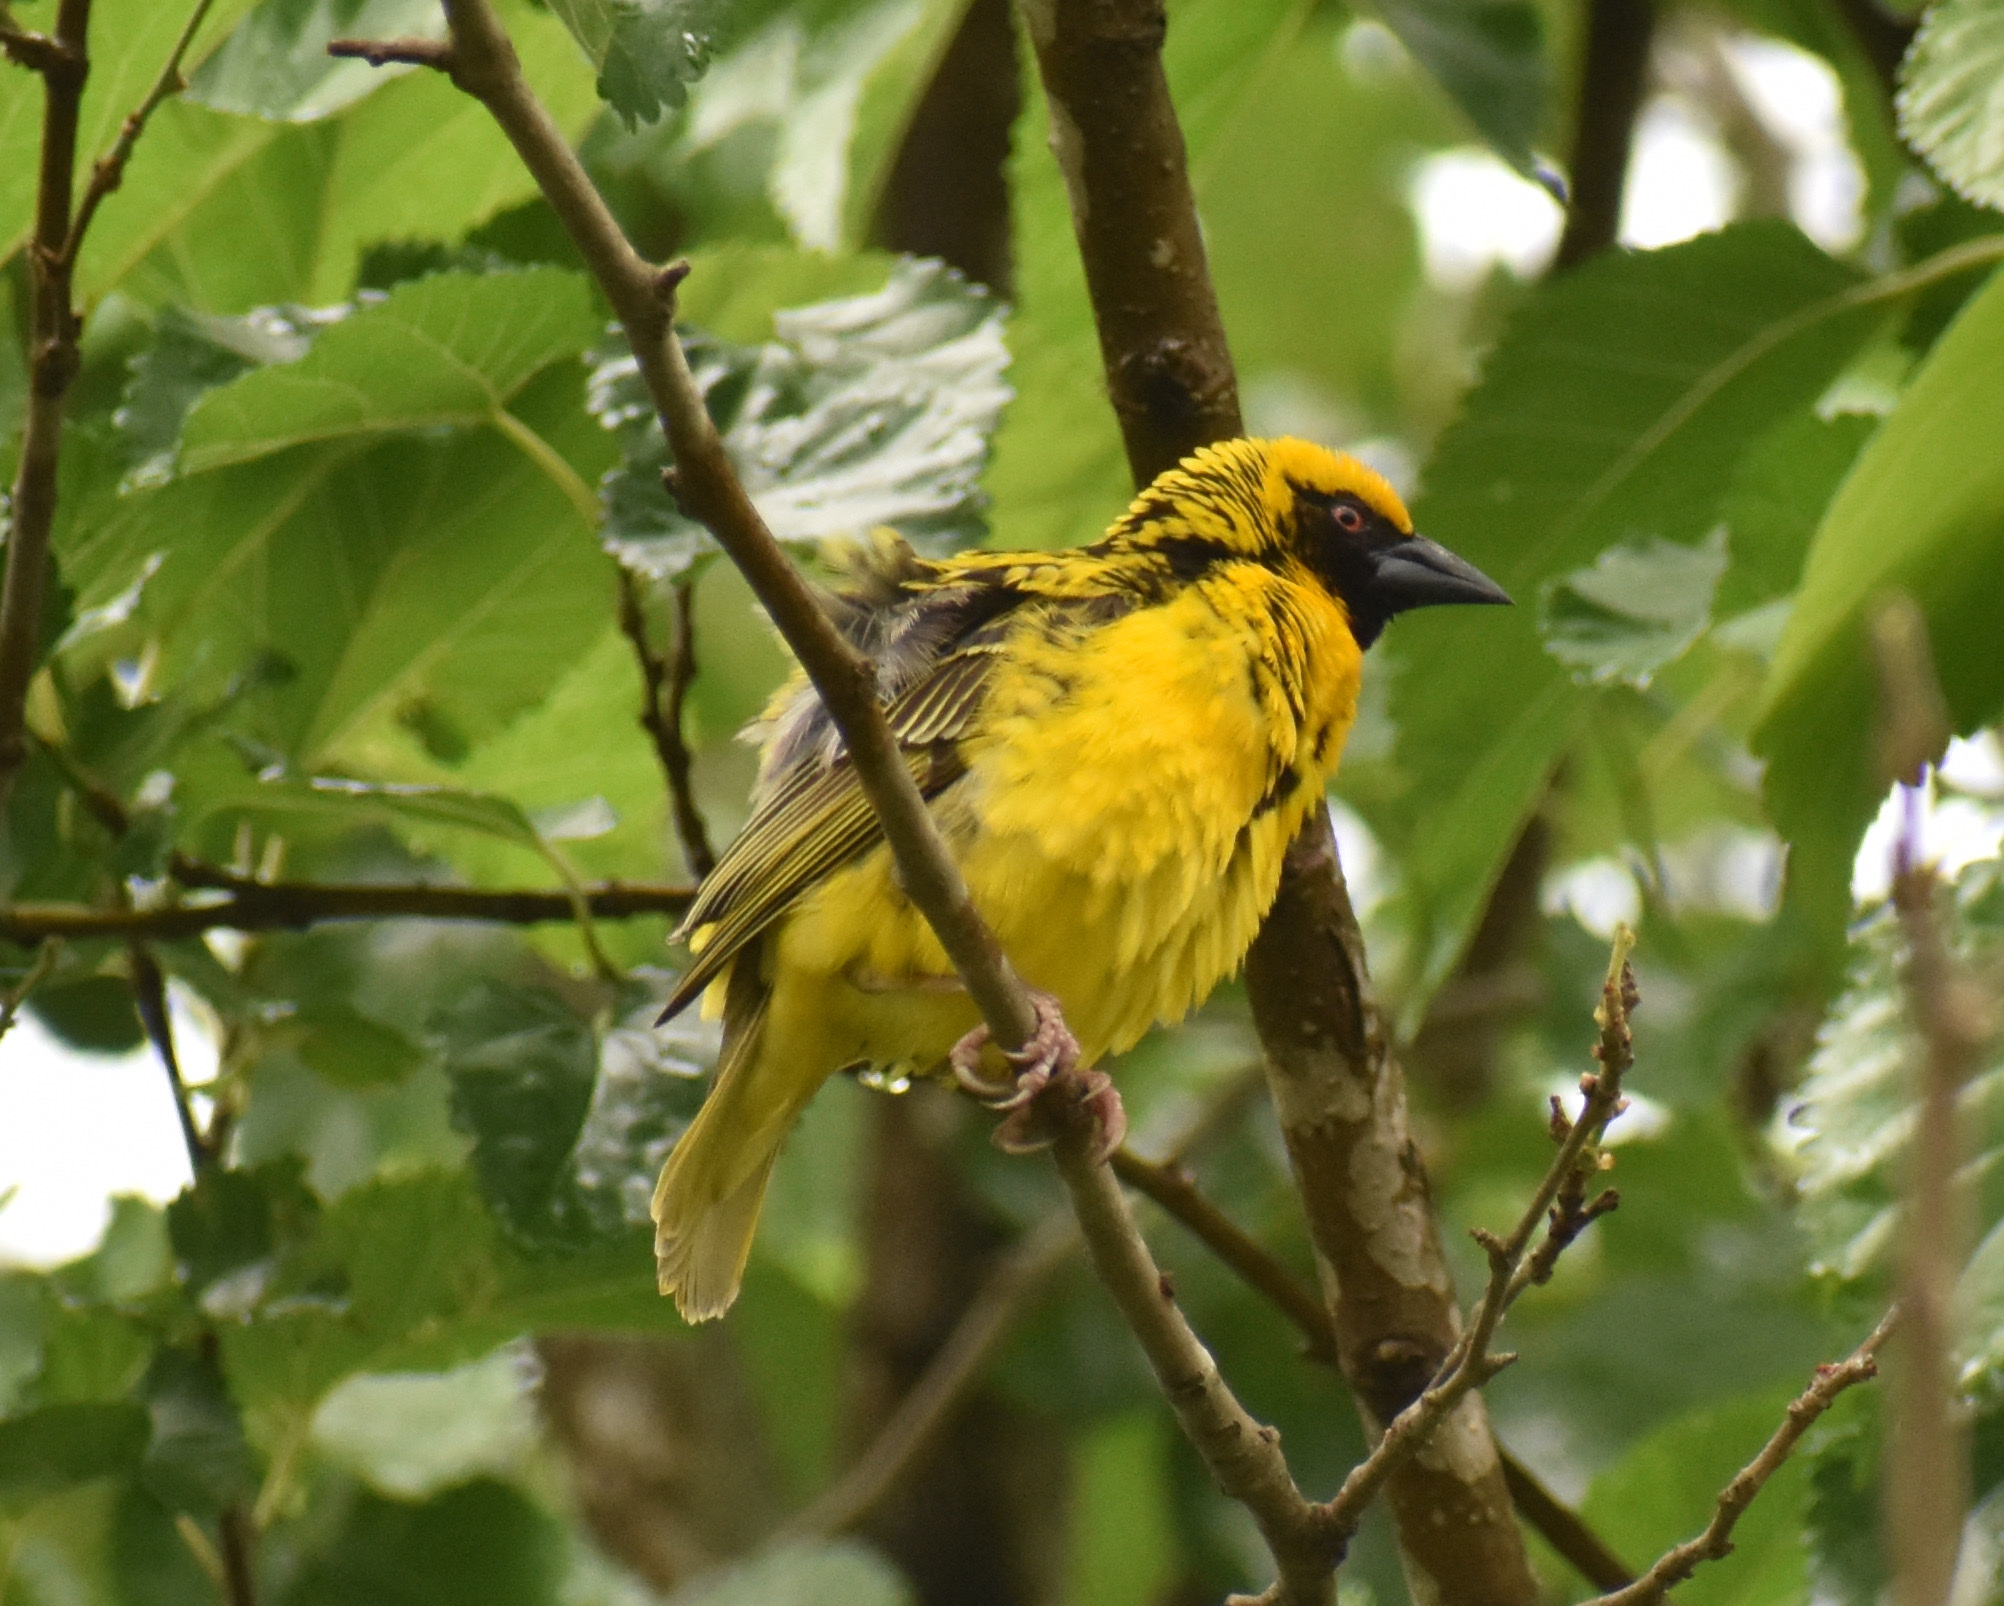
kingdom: Animalia
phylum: Chordata
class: Aves
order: Passeriformes
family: Ploceidae
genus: Ploceus
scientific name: Ploceus cucullatus
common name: Village weaver
